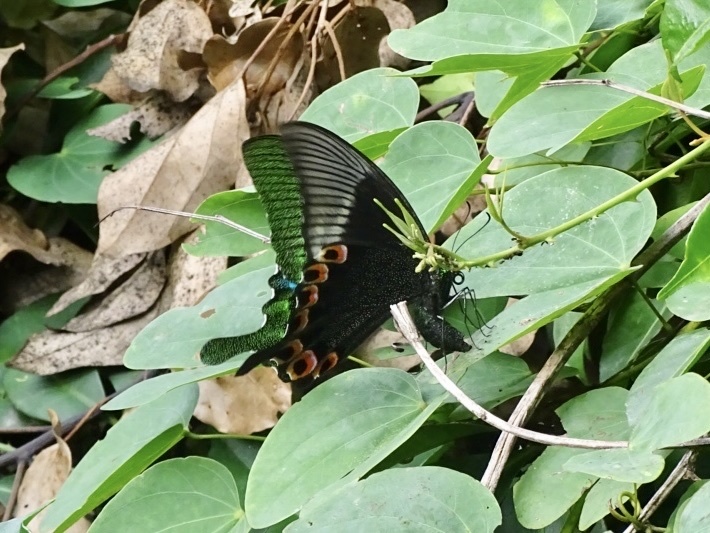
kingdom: Animalia
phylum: Arthropoda
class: Insecta
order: Lepidoptera
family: Papilionidae
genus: Papilio
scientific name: Papilio paris
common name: Paris peacock
